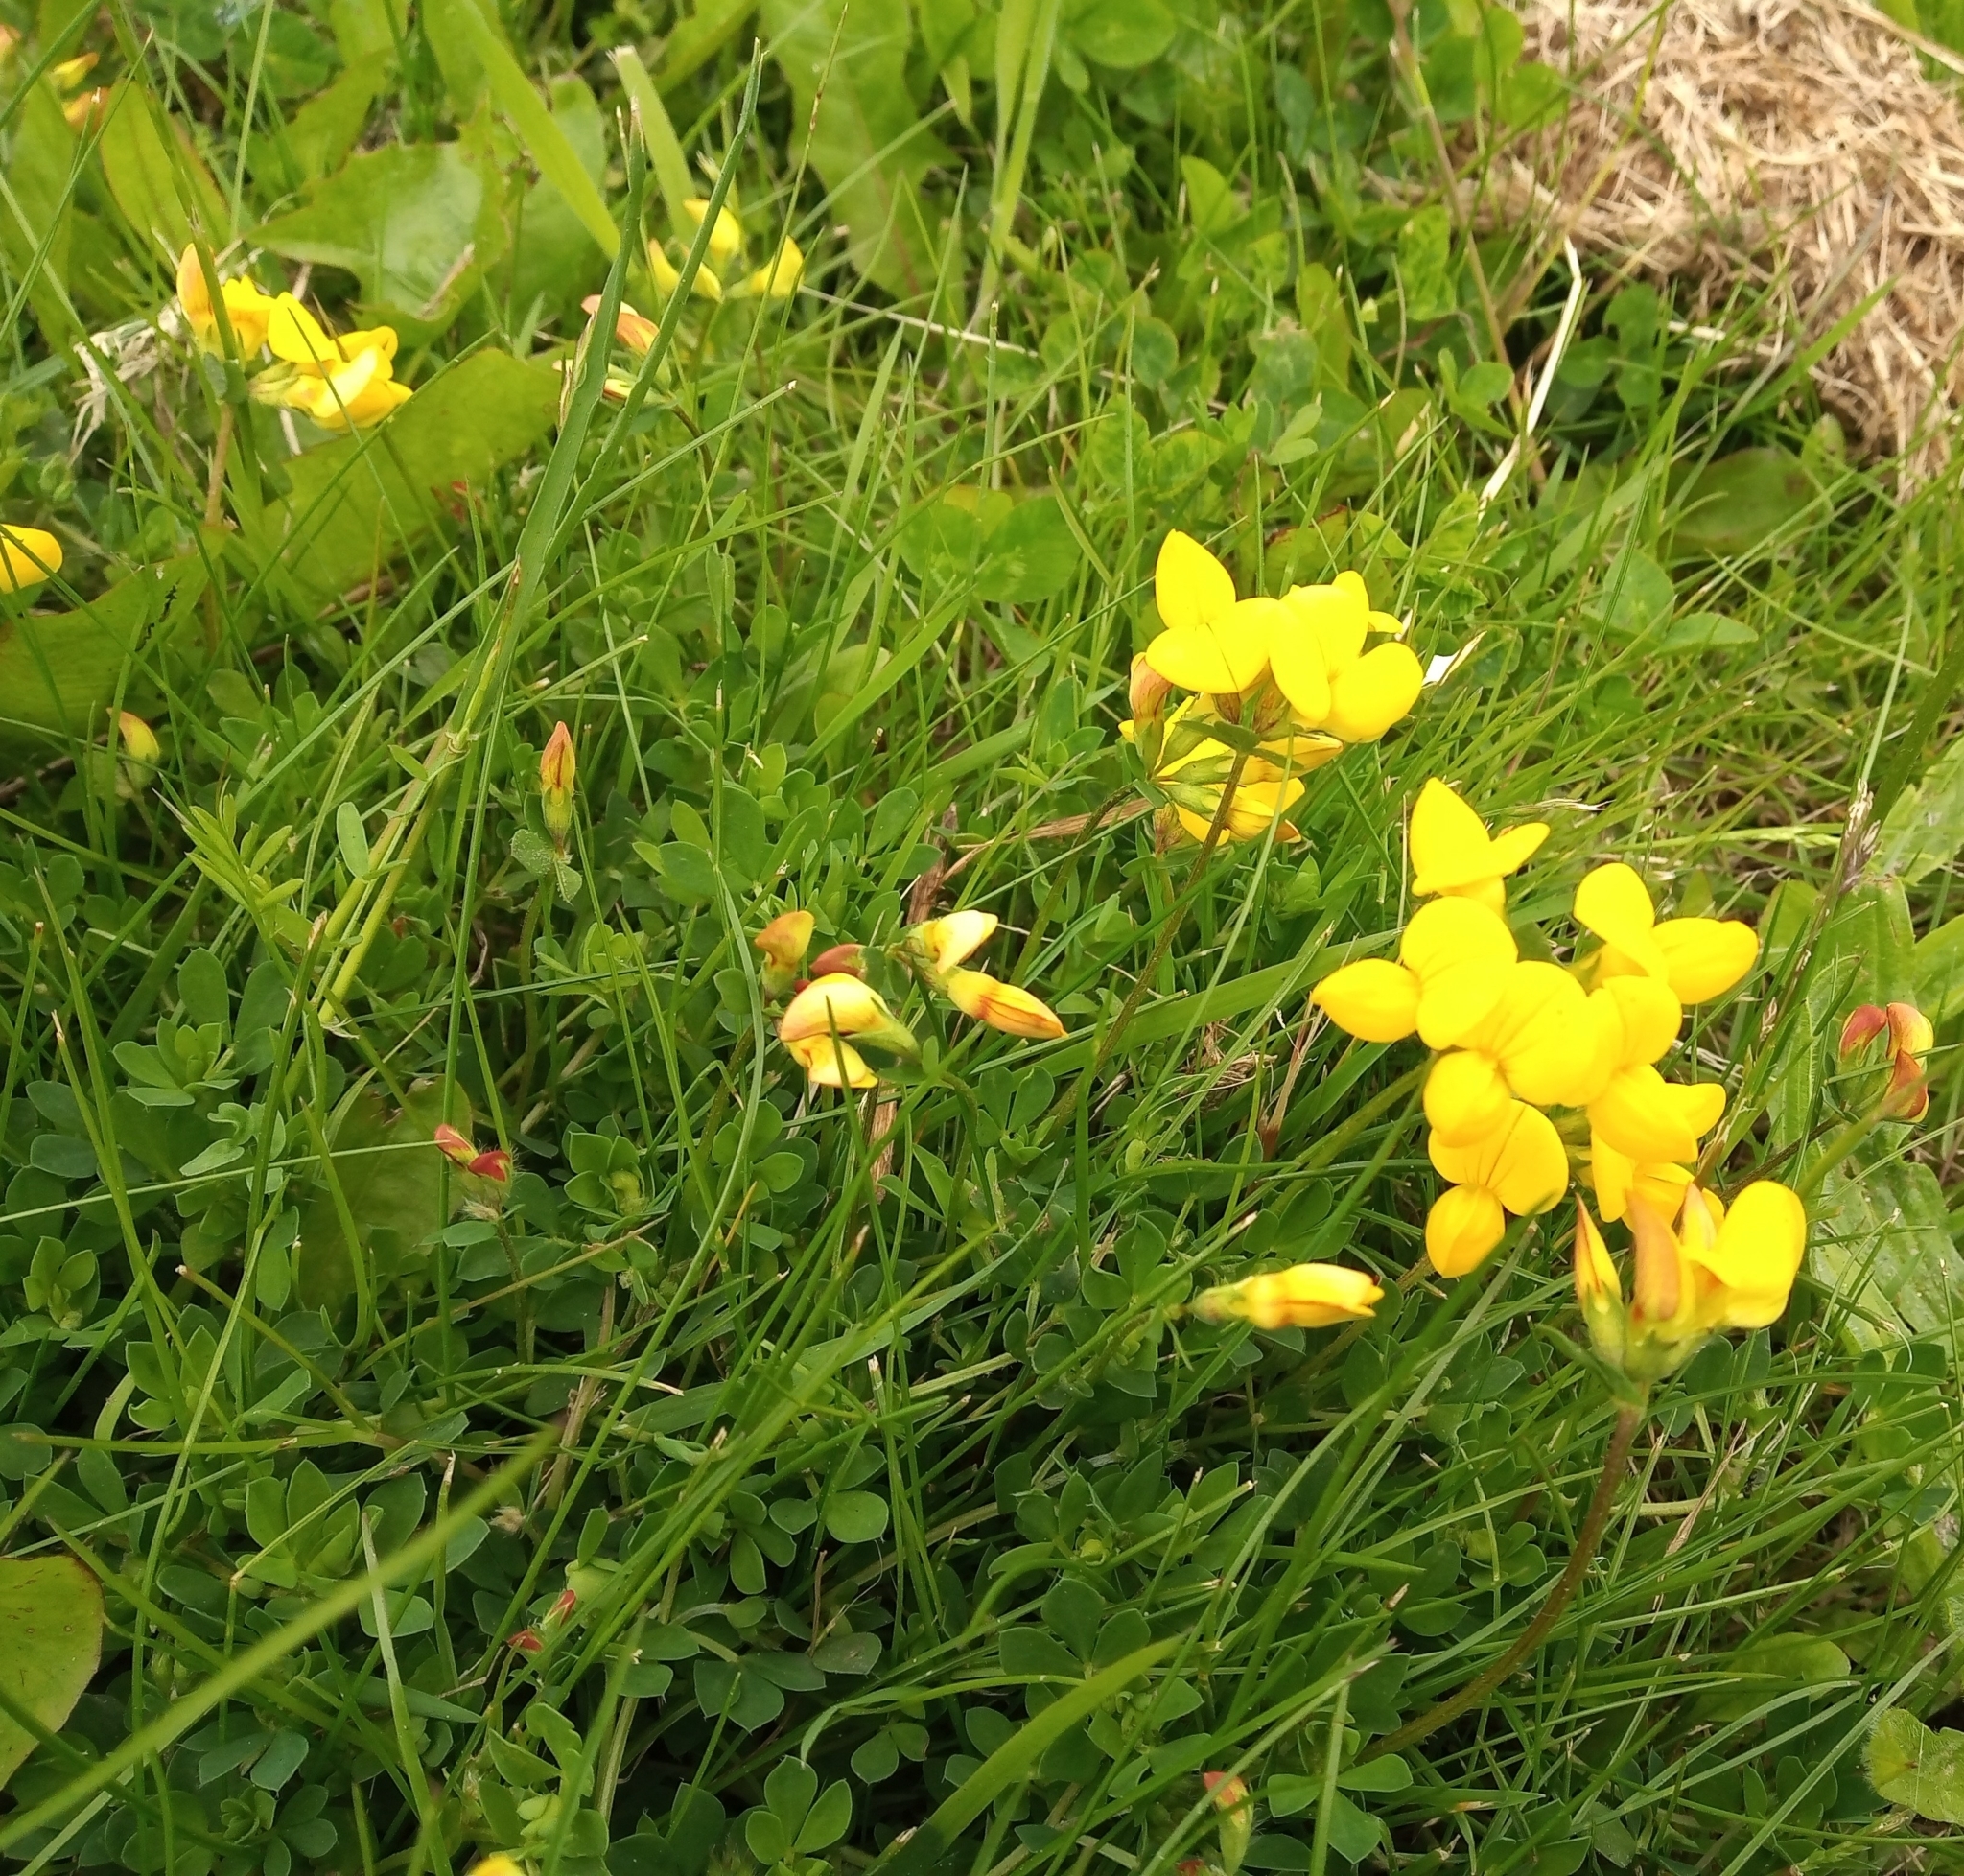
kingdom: Plantae
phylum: Tracheophyta
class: Magnoliopsida
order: Fabales
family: Fabaceae
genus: Lotus
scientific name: Lotus corniculatus
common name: Common bird's-foot-trefoil
